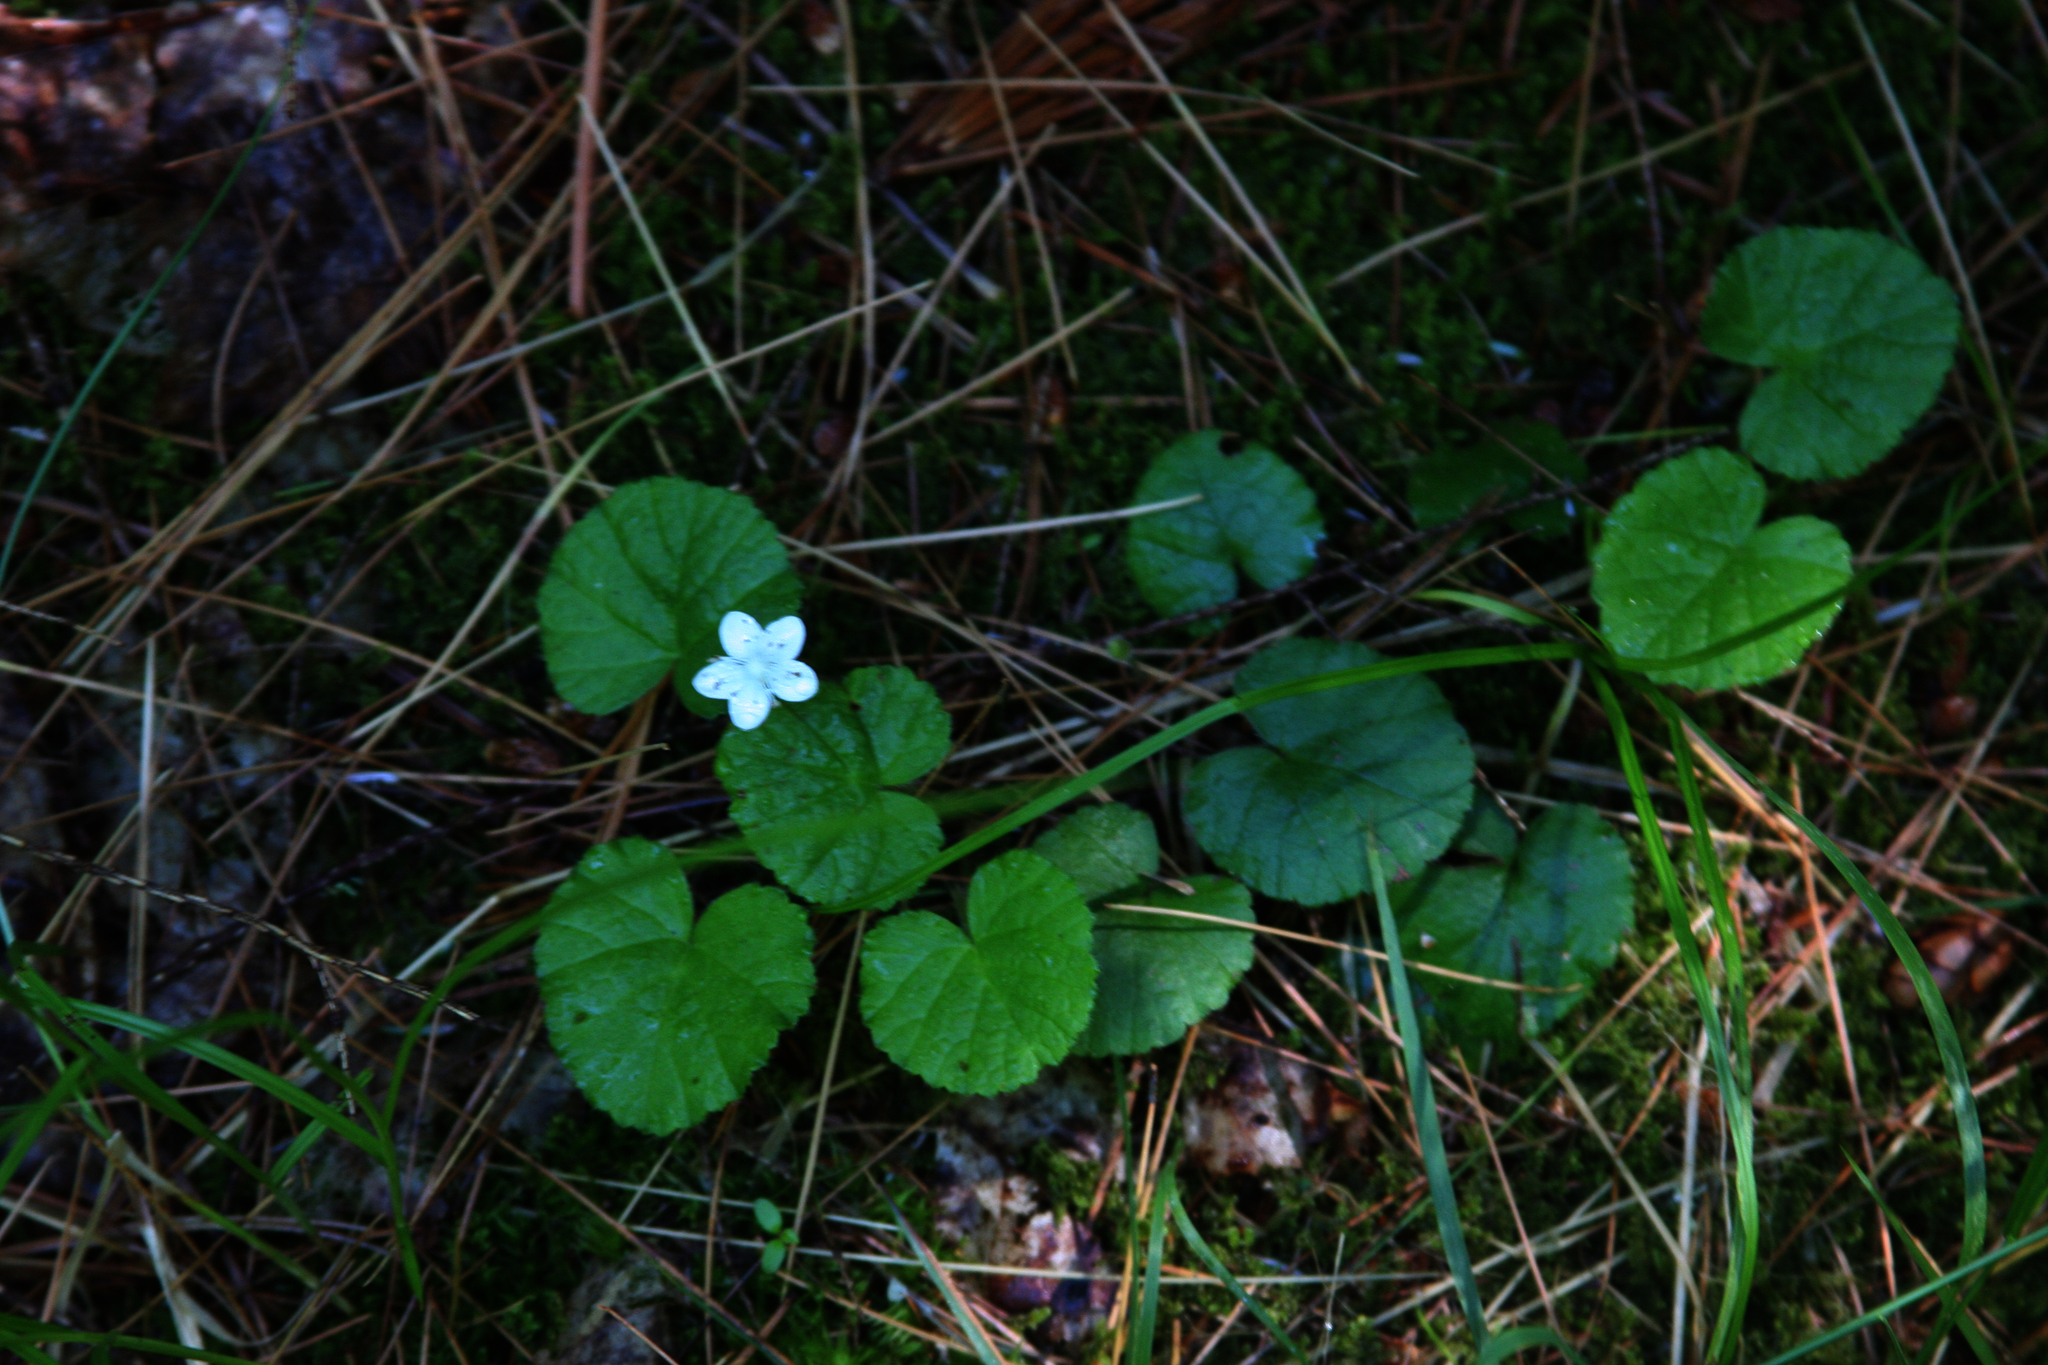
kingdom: Plantae
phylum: Tracheophyta
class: Magnoliopsida
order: Rosales
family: Rosaceae
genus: Dalibarda
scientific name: Dalibarda repens
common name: Dewdrop
